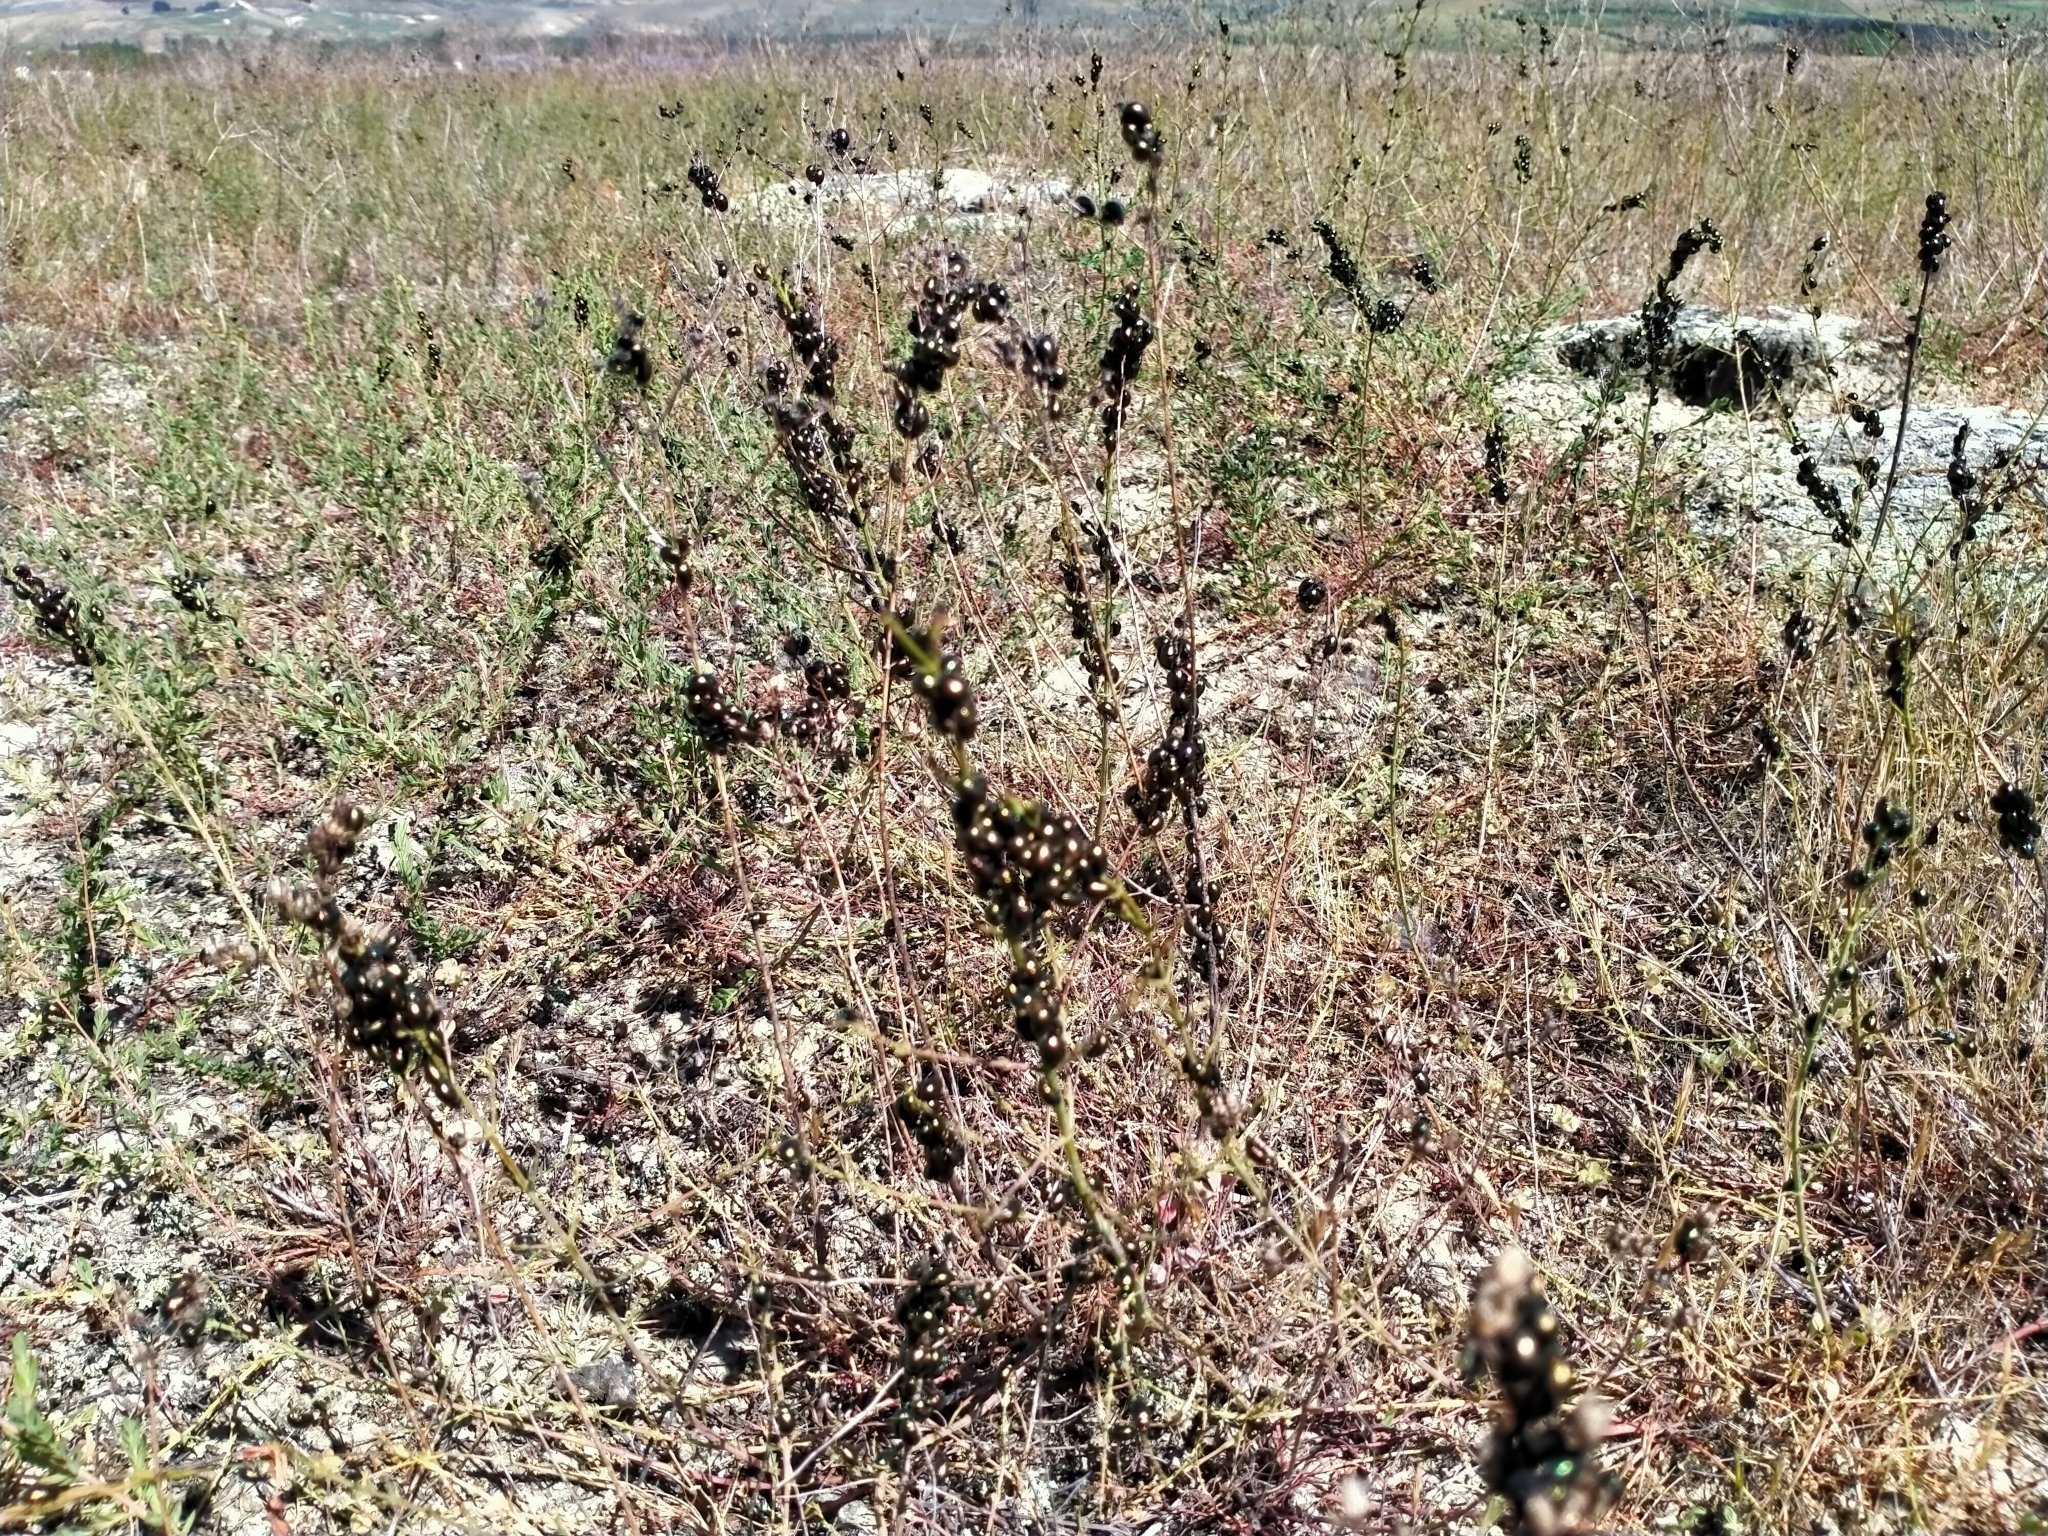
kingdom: Animalia
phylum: Arthropoda
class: Insecta
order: Coleoptera
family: Chrysomelidae
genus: Chrysolina
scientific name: Chrysolina hyperici
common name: St. johnswort beetle
